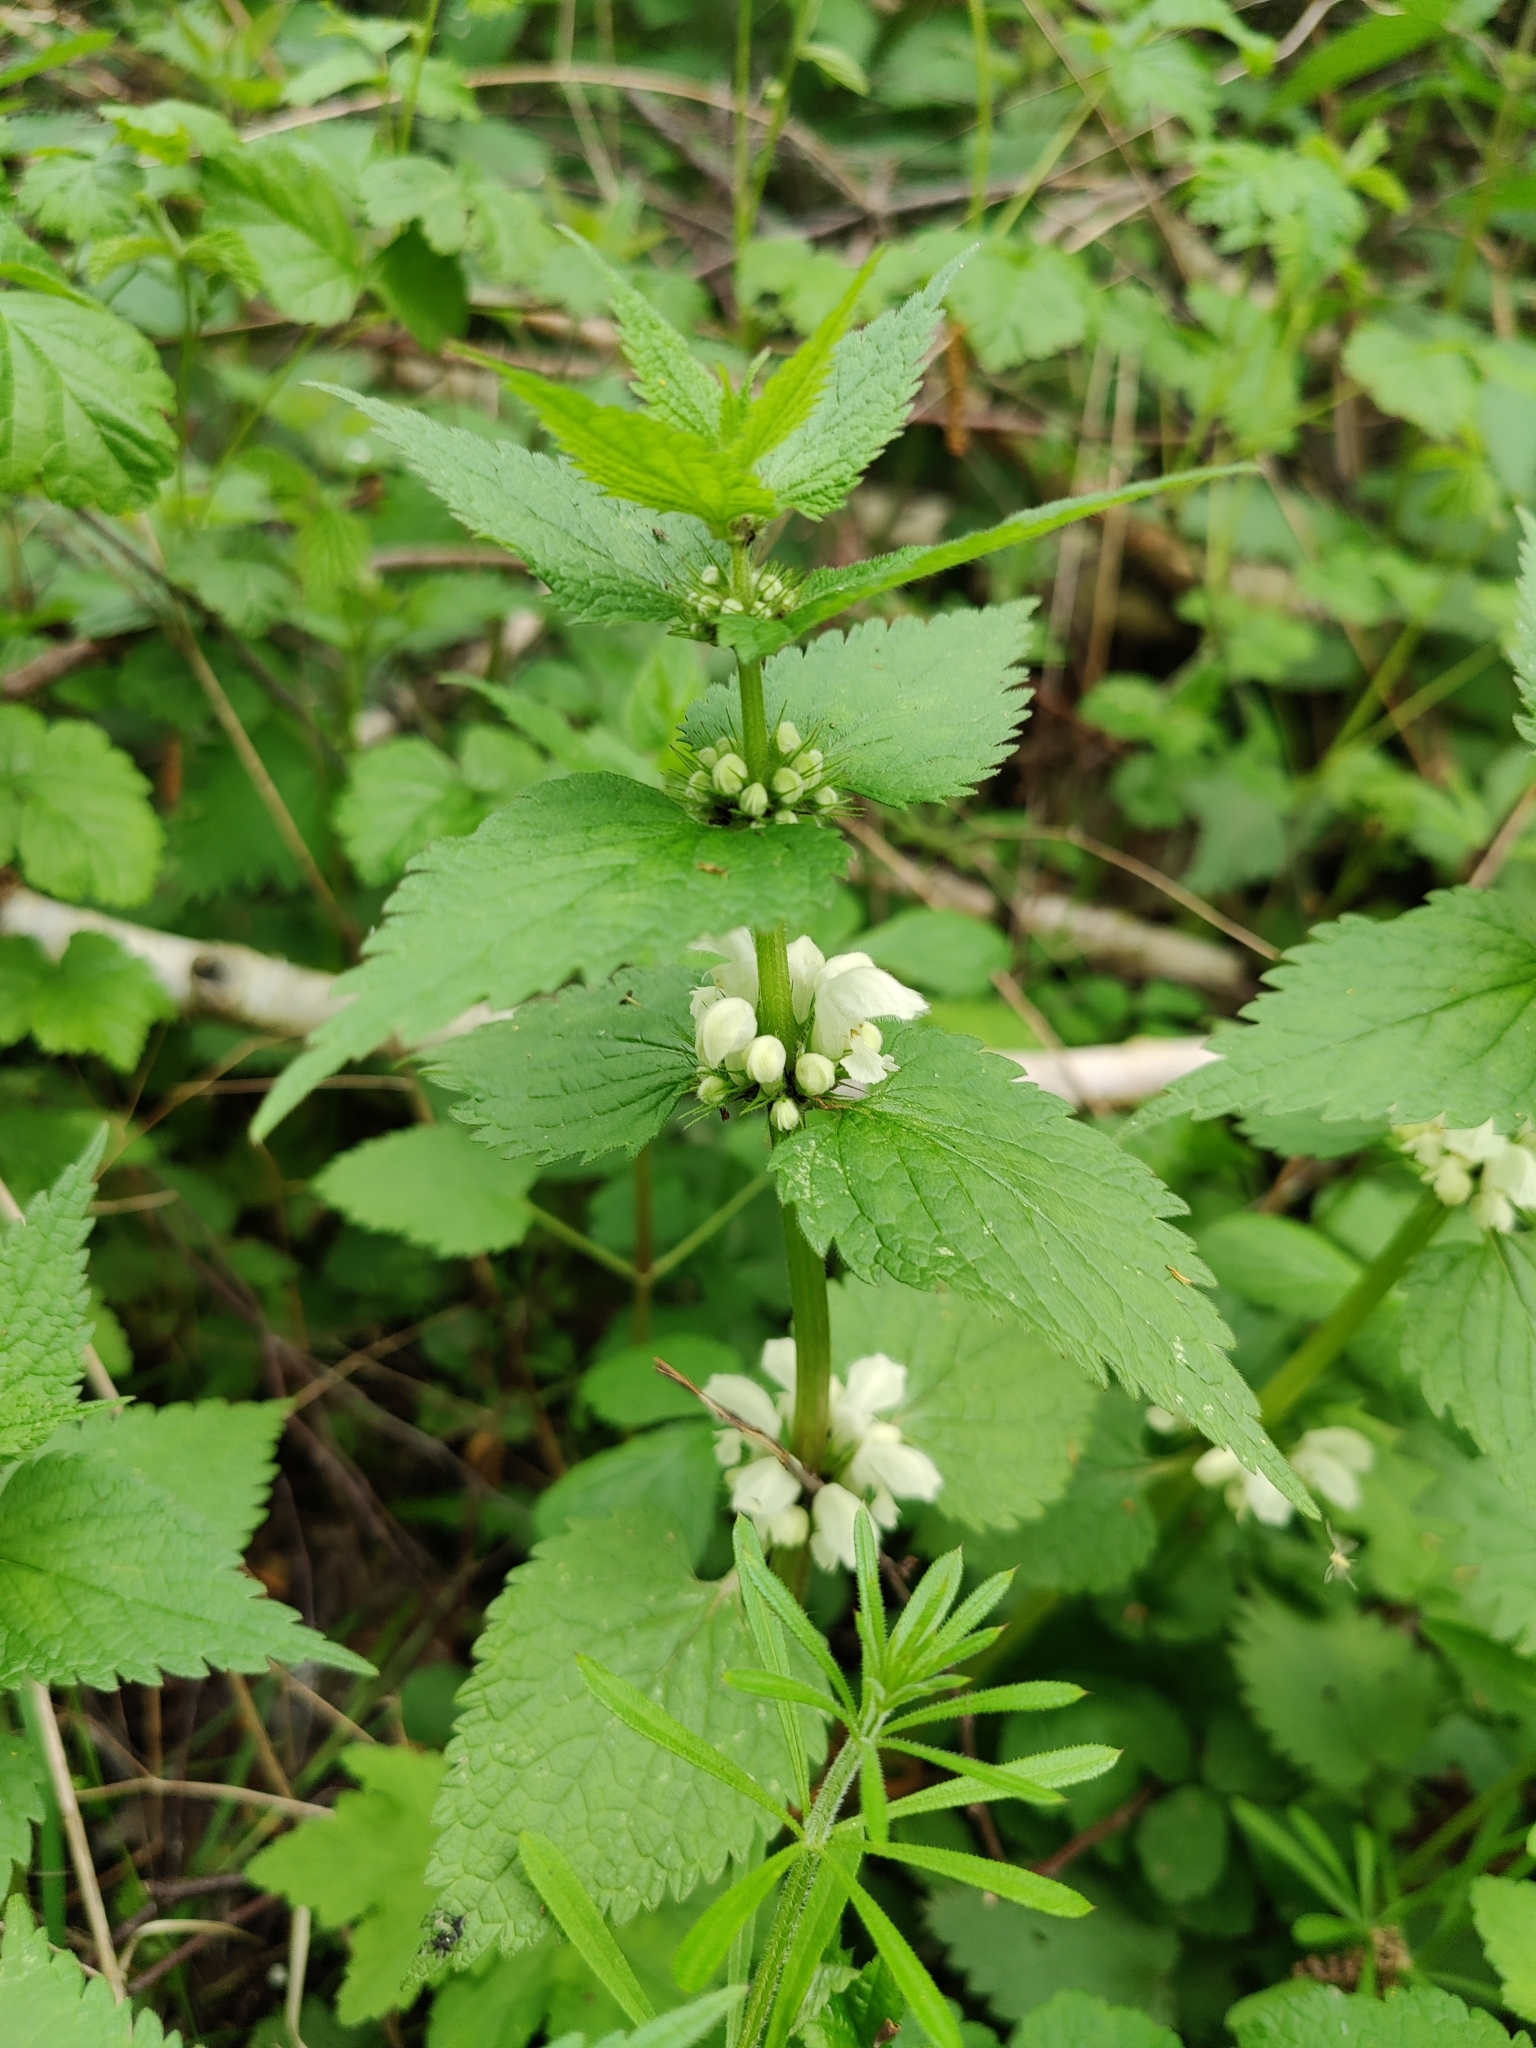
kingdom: Plantae
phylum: Tracheophyta
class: Magnoliopsida
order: Lamiales
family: Lamiaceae
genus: Lamium
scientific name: Lamium album
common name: White dead-nettle
